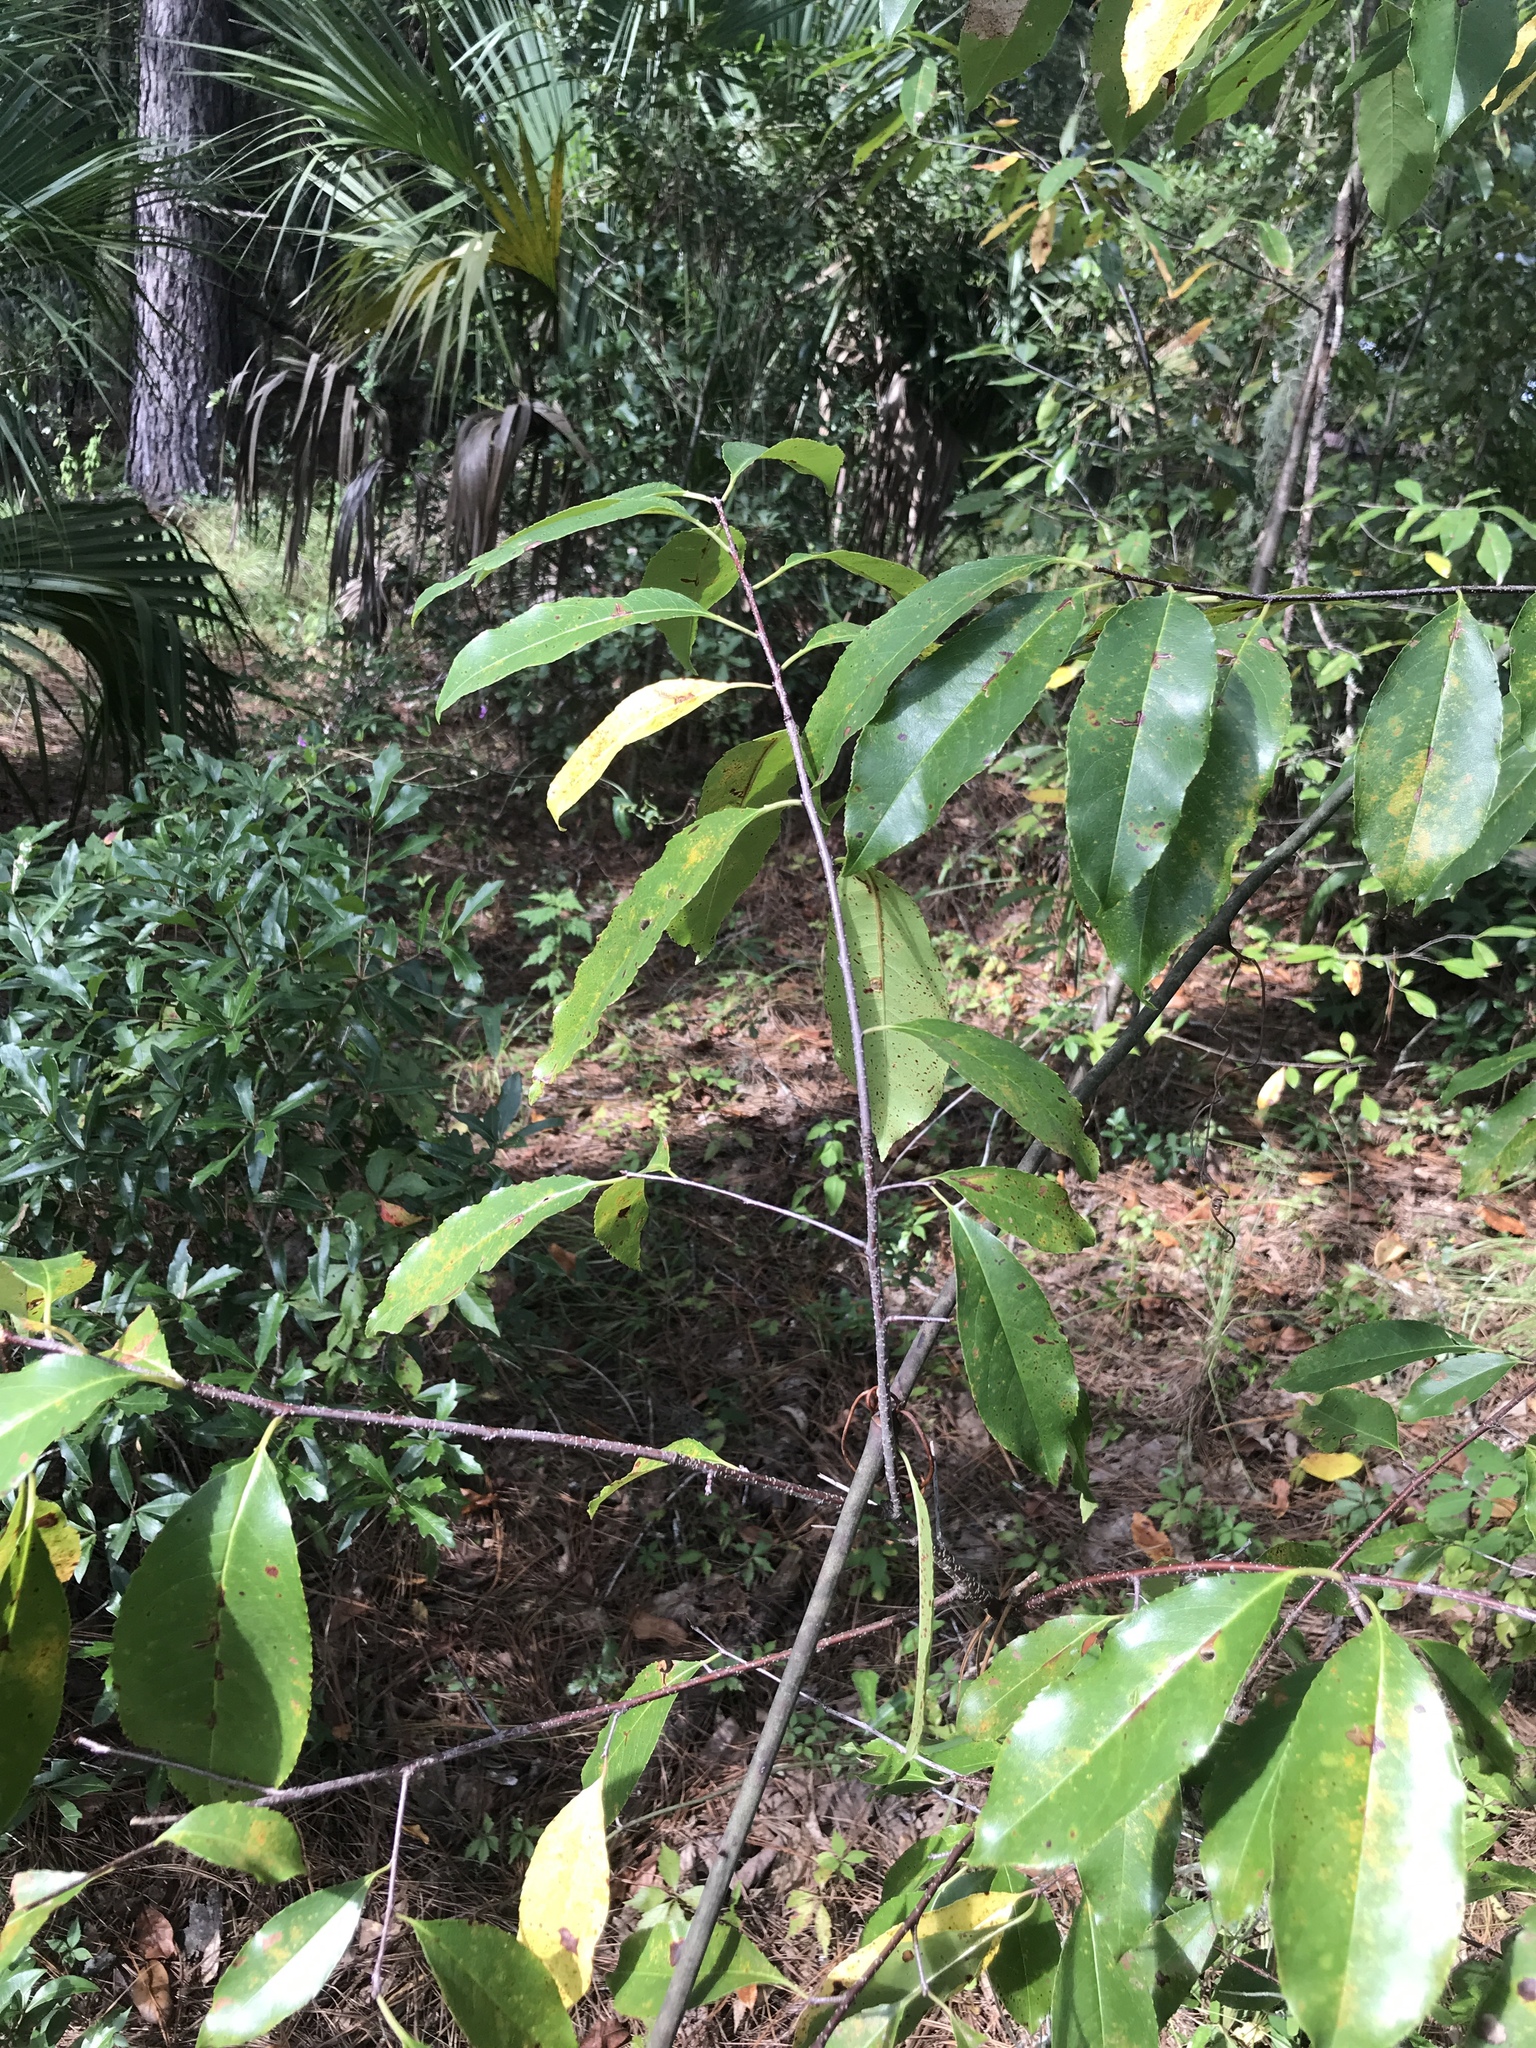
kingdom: Plantae
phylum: Tracheophyta
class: Magnoliopsida
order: Rosales
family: Rosaceae
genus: Prunus
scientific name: Prunus serotina
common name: Black cherry
